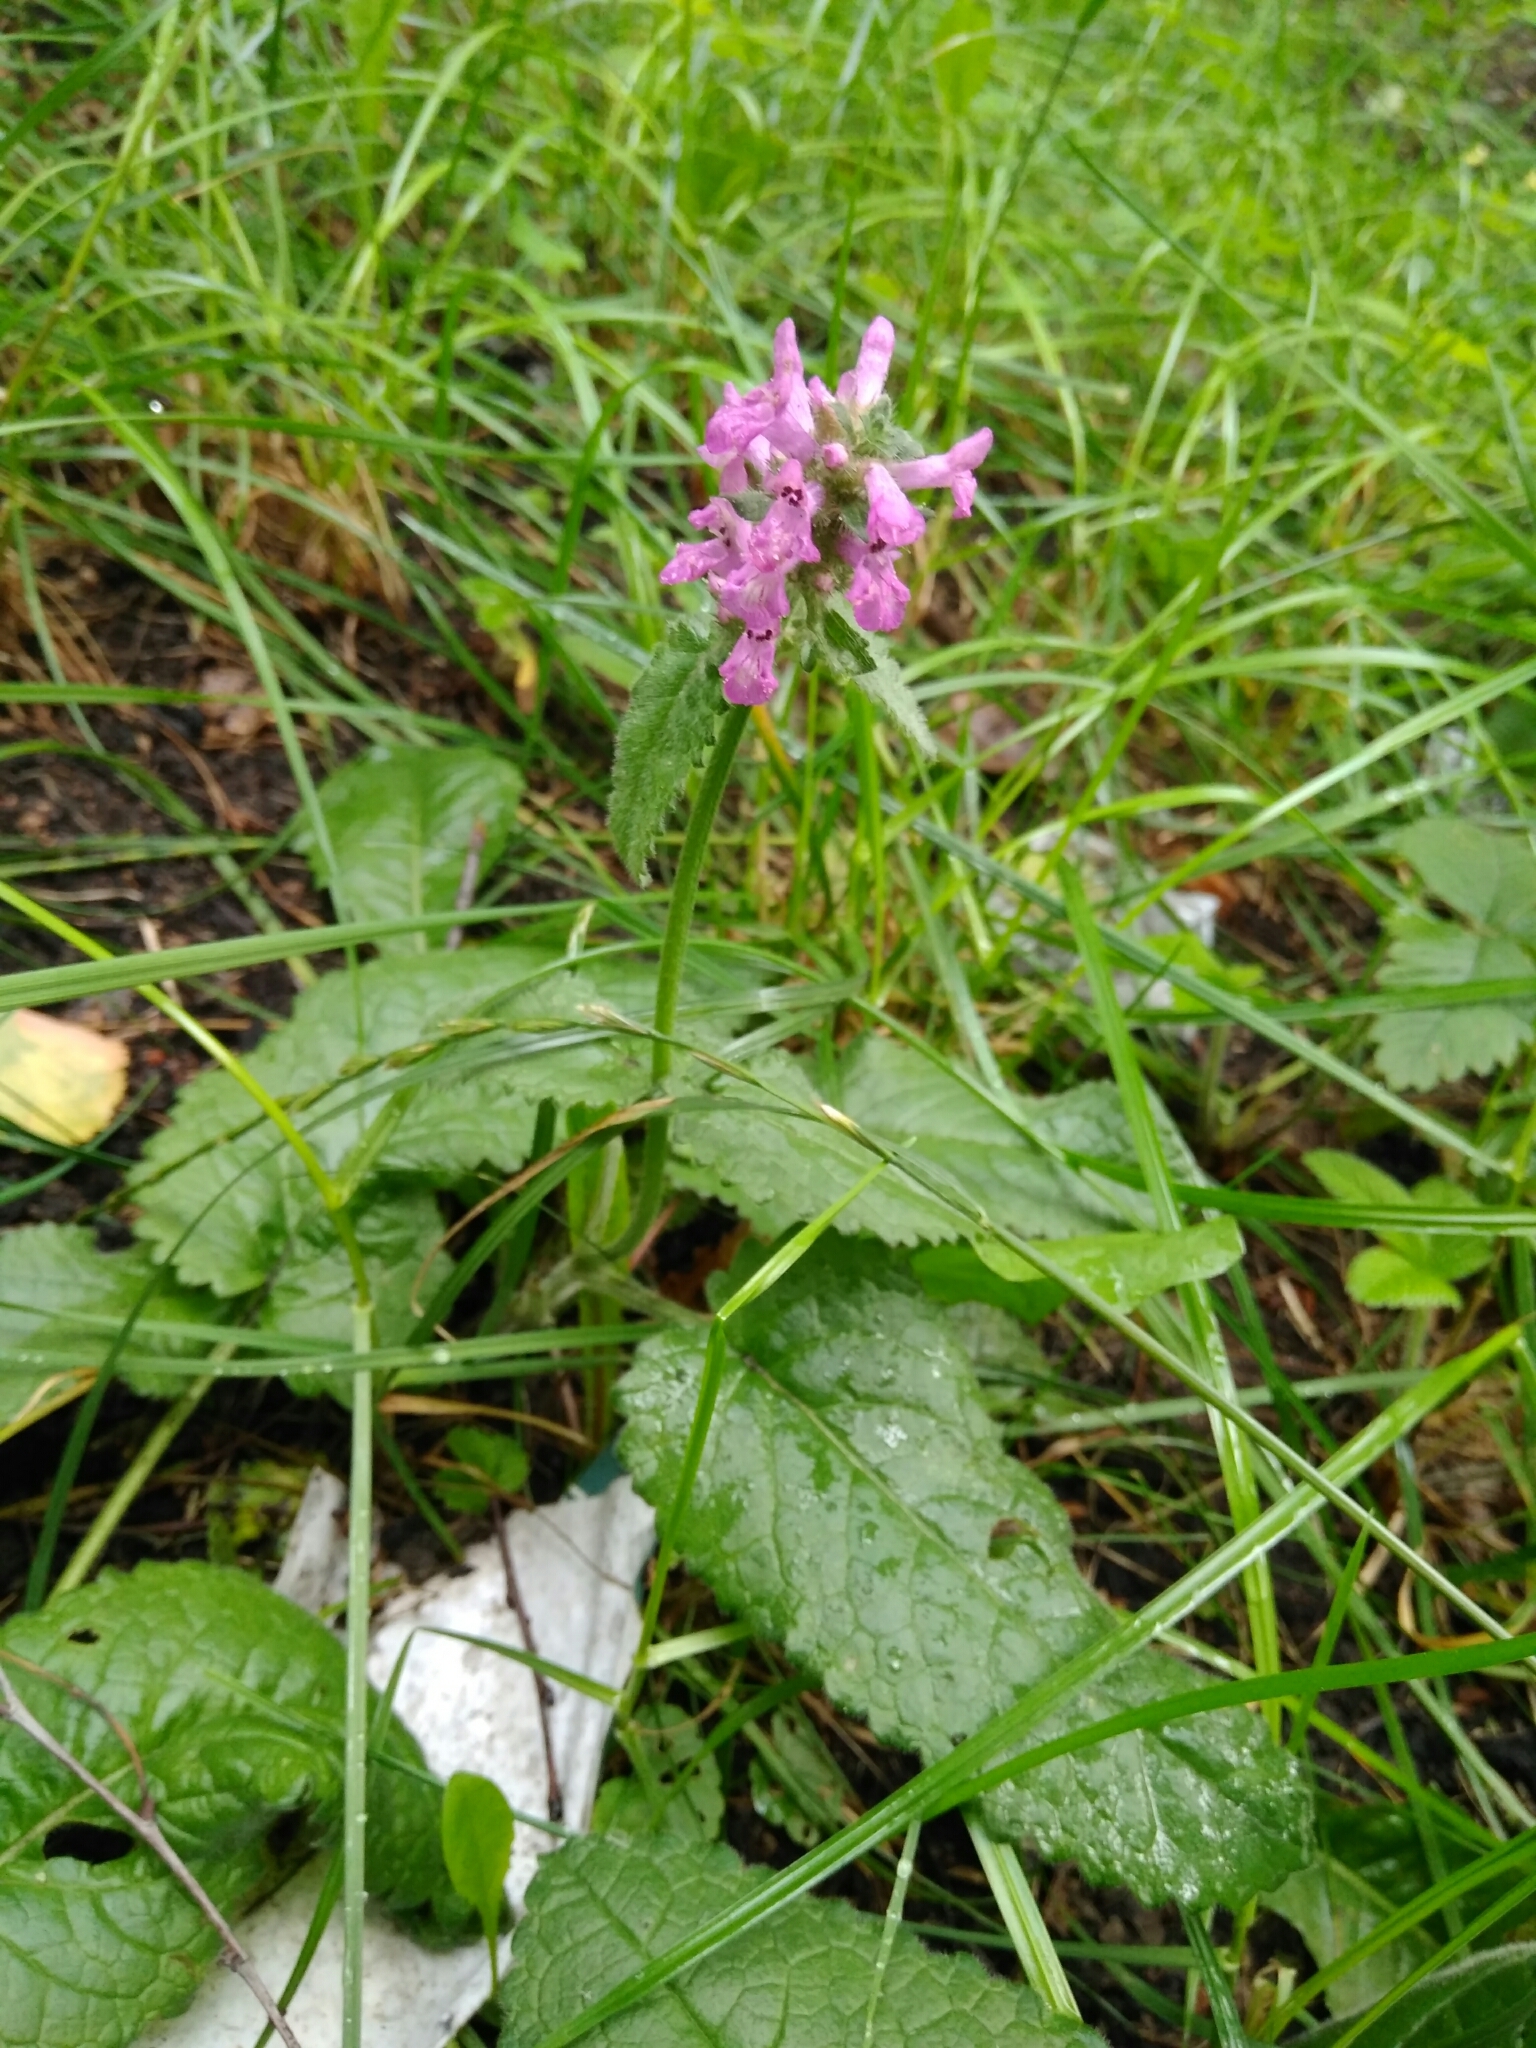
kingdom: Plantae
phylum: Tracheophyta
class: Magnoliopsida
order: Lamiales
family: Lamiaceae
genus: Betonica
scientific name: Betonica officinalis
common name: Bishop's-wort
